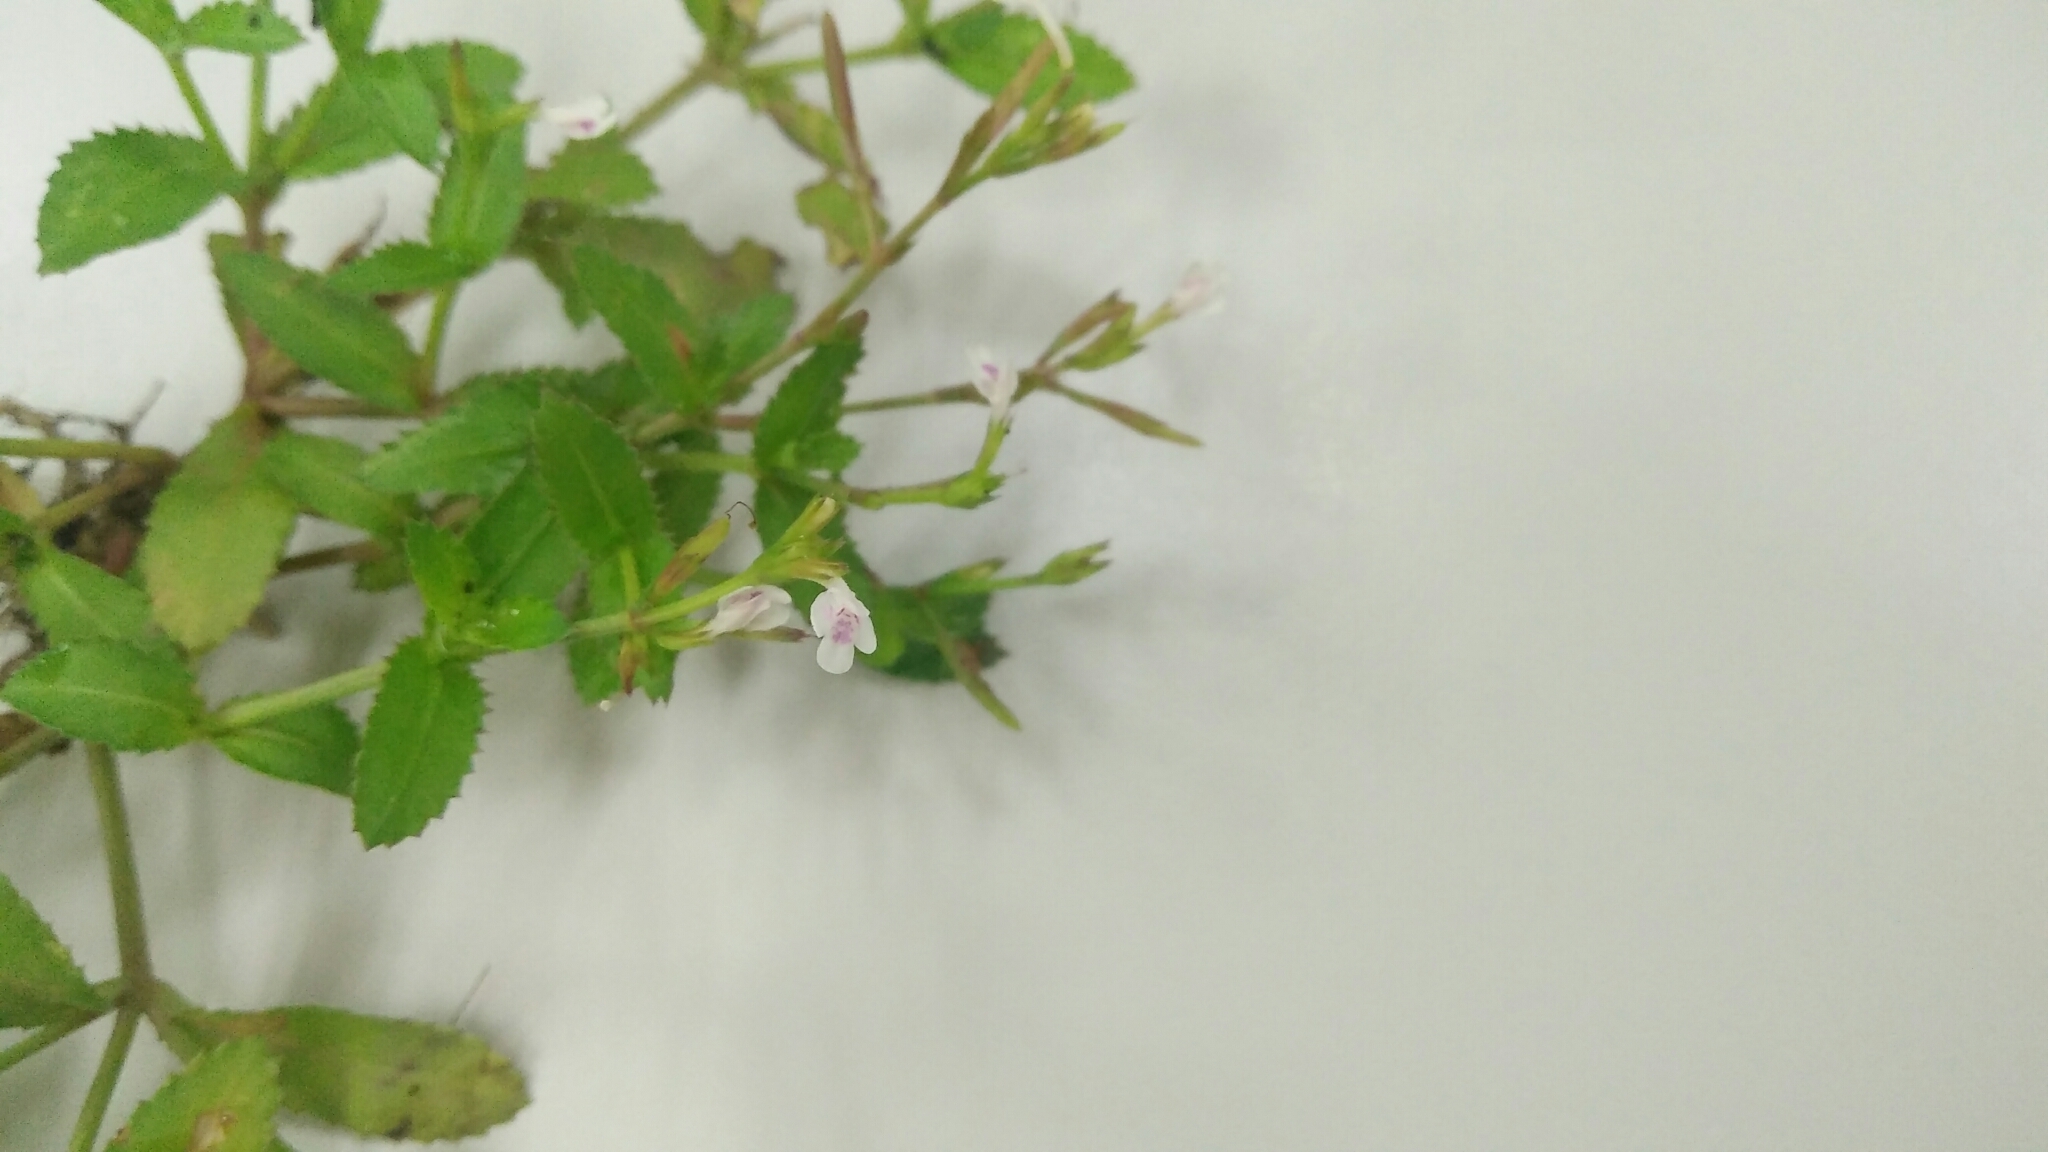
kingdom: Plantae
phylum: Tracheophyta
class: Magnoliopsida
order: Lamiales
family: Linderniaceae
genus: Bonnaya
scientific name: Bonnaya ciliata
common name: Hairy slitwort
